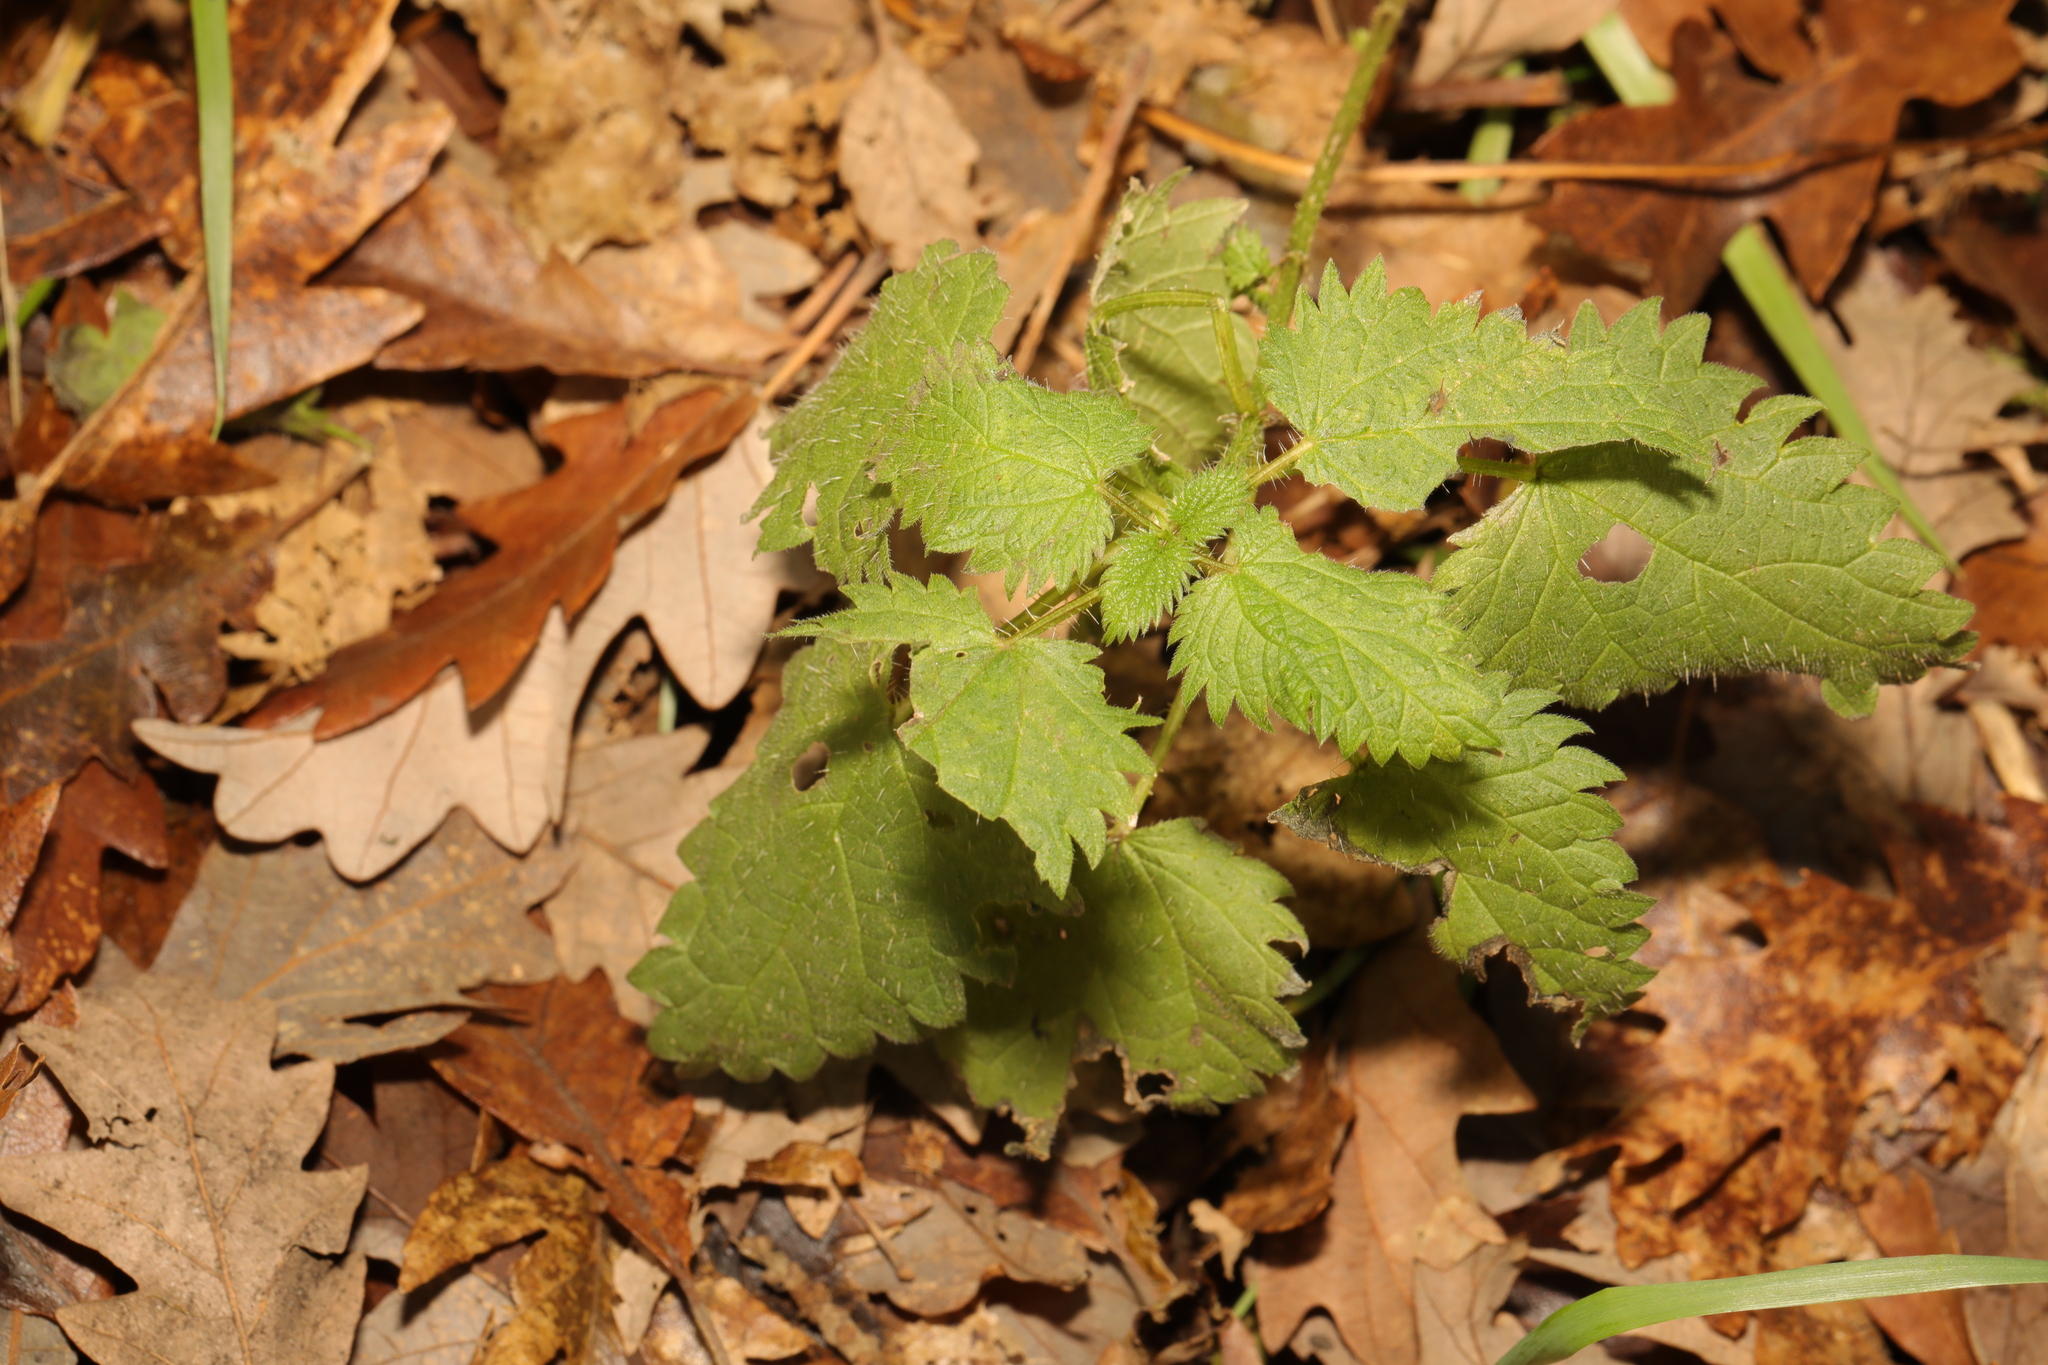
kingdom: Plantae
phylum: Tracheophyta
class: Magnoliopsida
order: Rosales
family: Urticaceae
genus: Urtica
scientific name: Urtica dioica
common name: Common nettle
